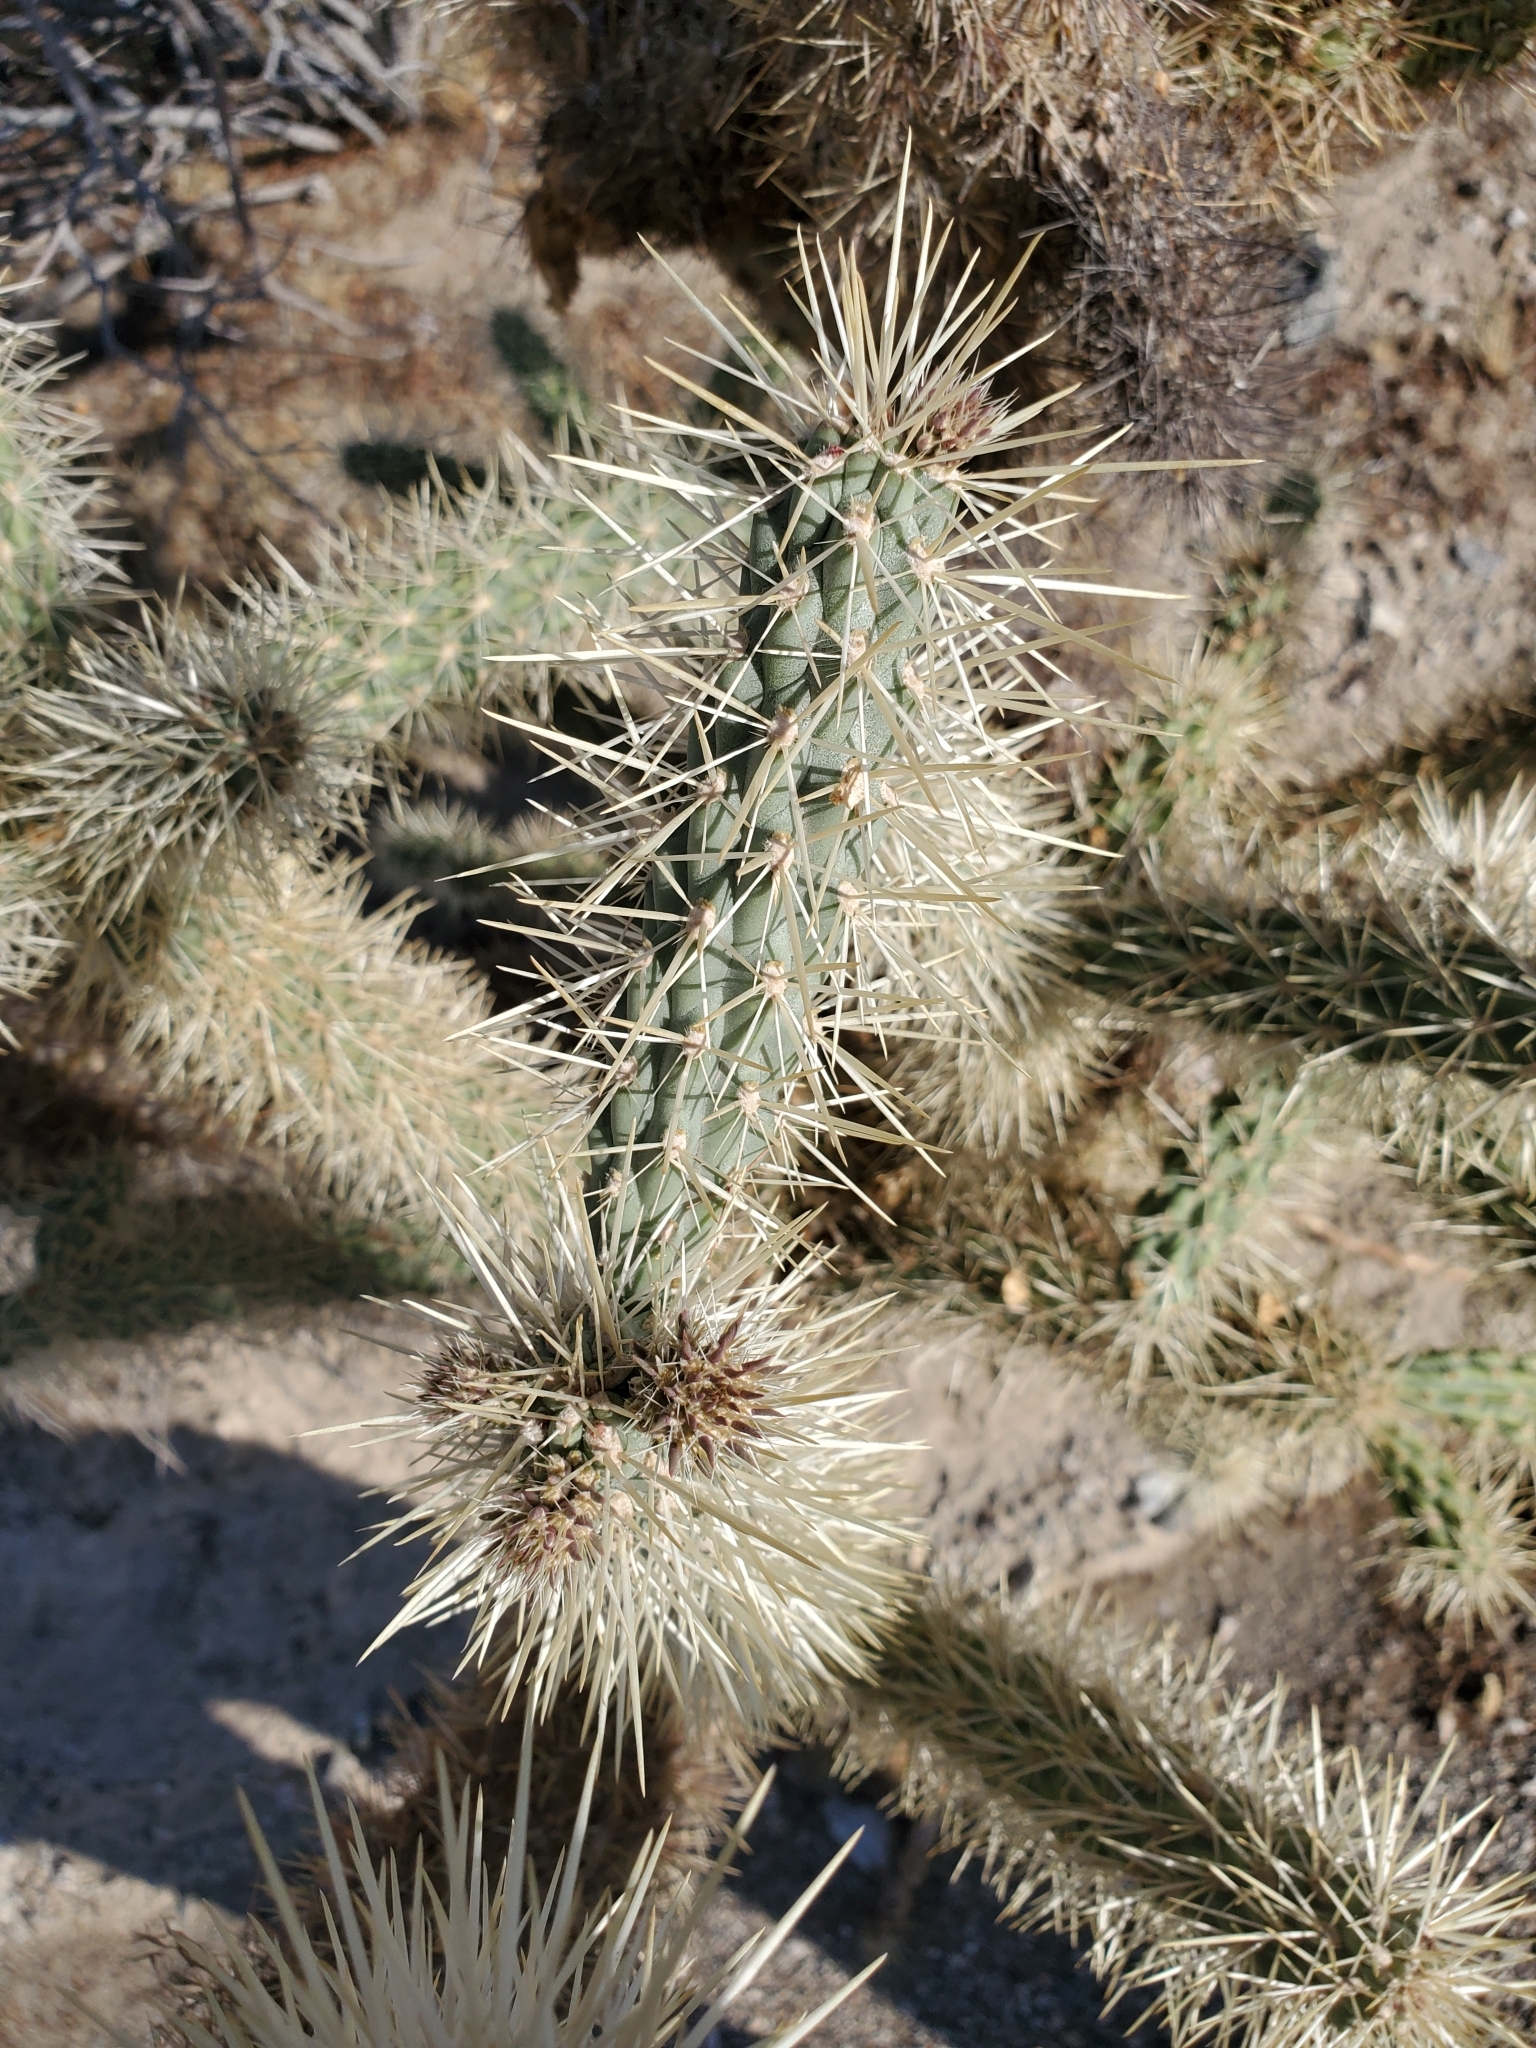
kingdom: Plantae
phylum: Tracheophyta
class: Magnoliopsida
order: Caryophyllales
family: Cactaceae
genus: Cylindropuntia
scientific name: Cylindropuntia munzii
